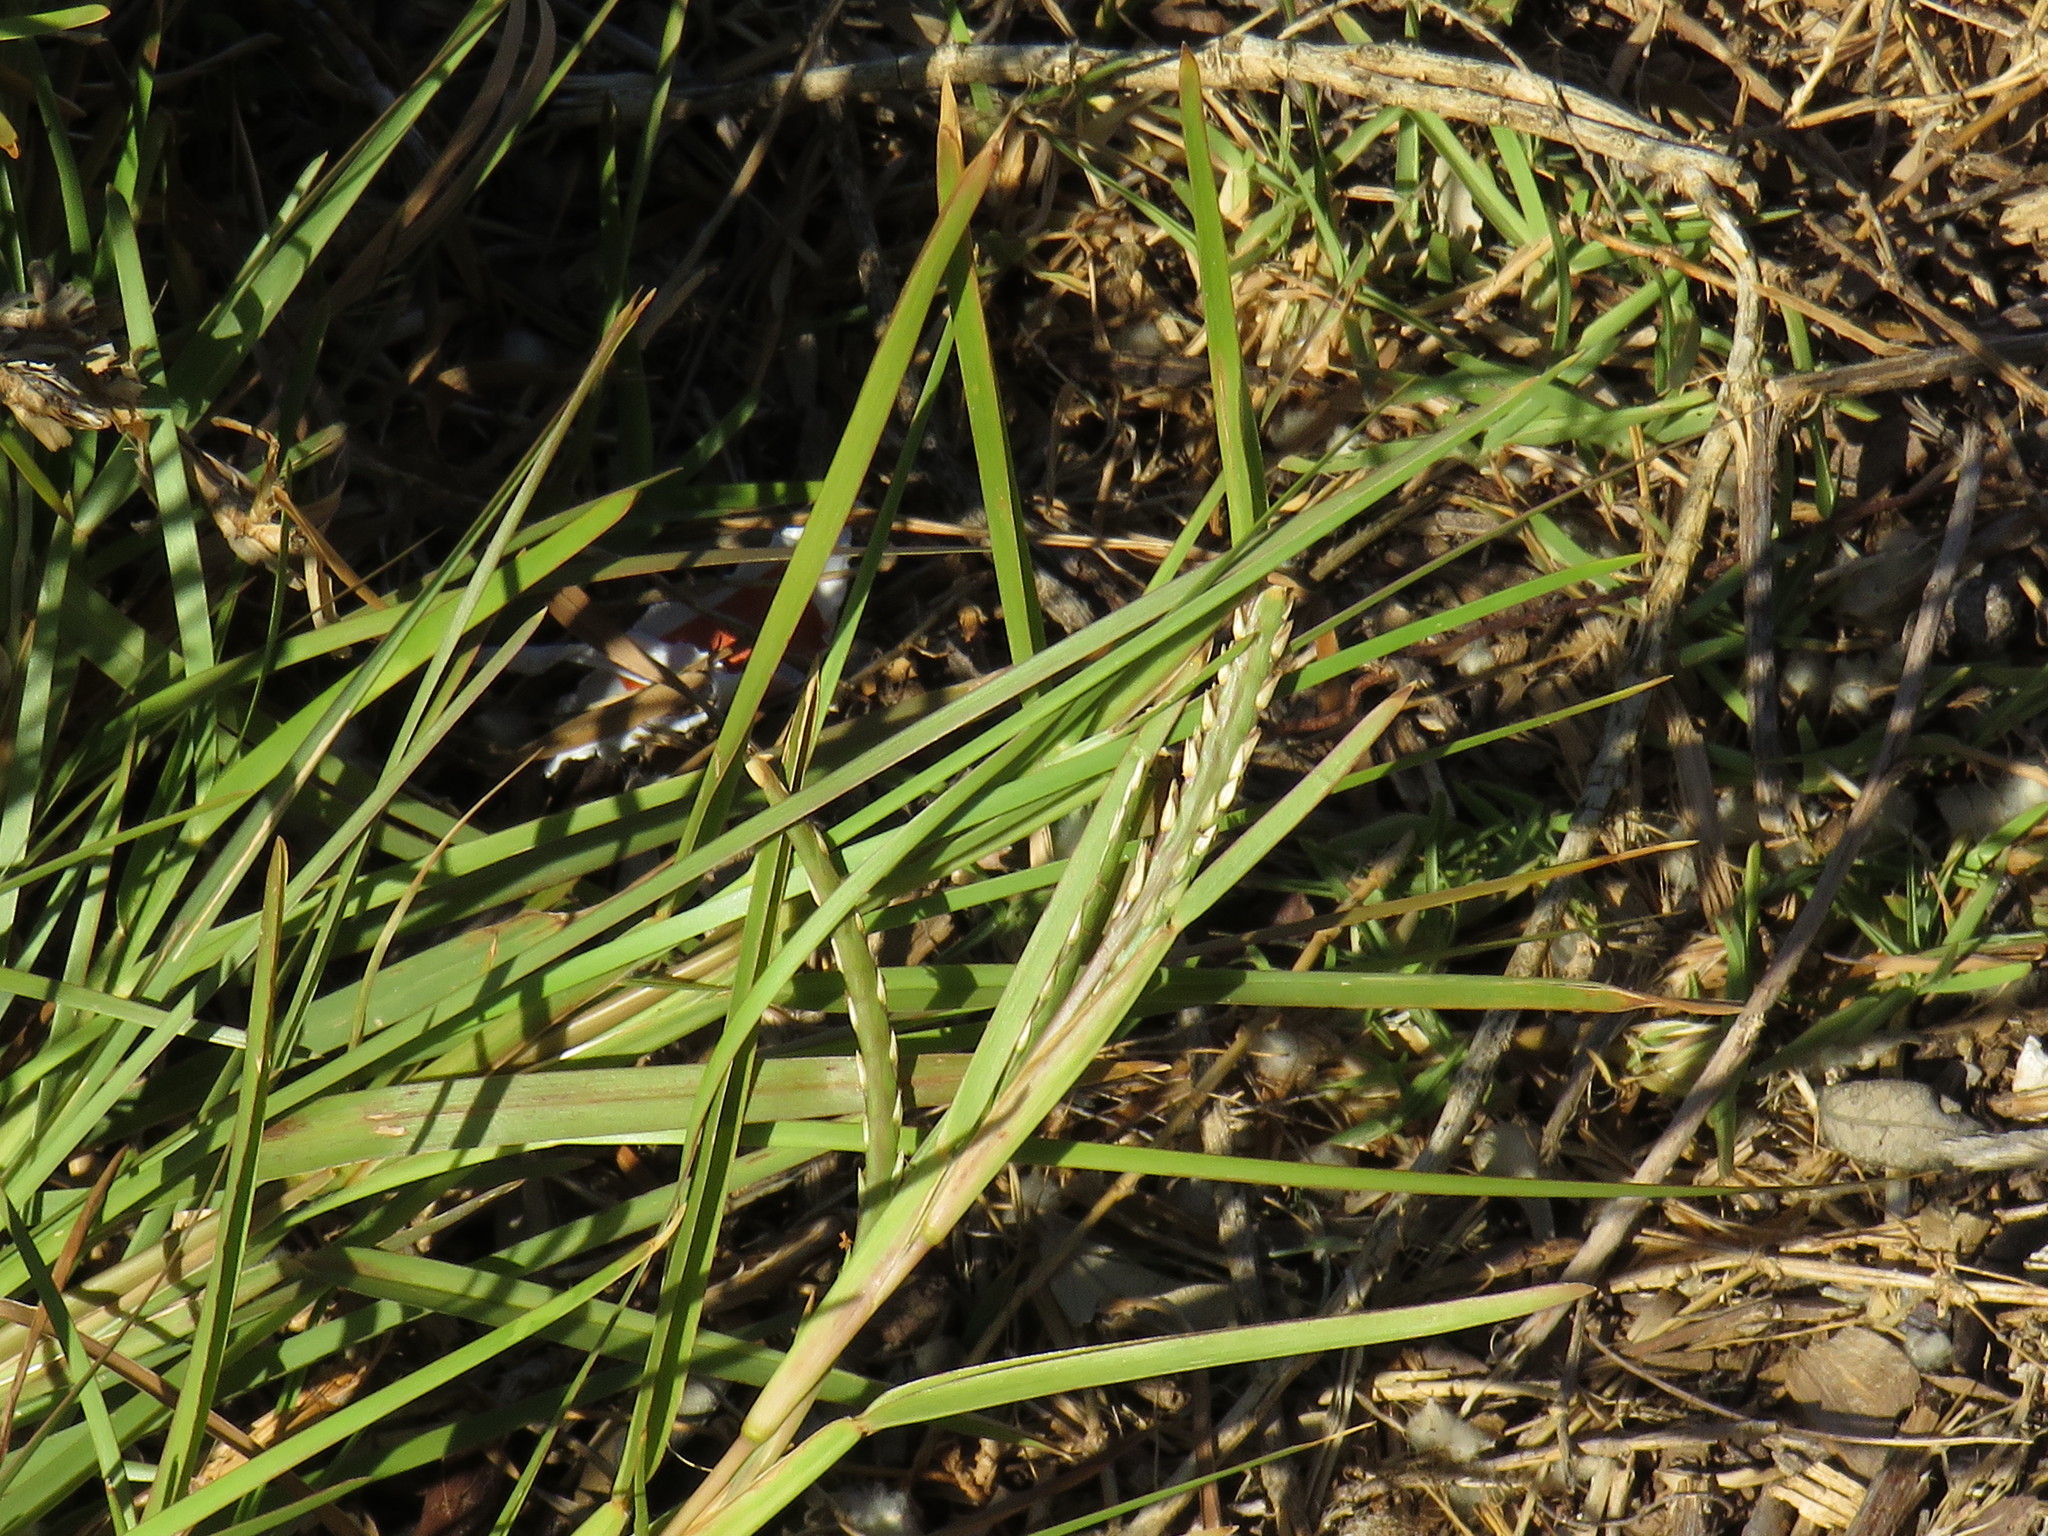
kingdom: Plantae
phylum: Tracheophyta
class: Liliopsida
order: Poales
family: Poaceae
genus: Stenotaphrum
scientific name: Stenotaphrum secundatum
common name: St. augustine grass
